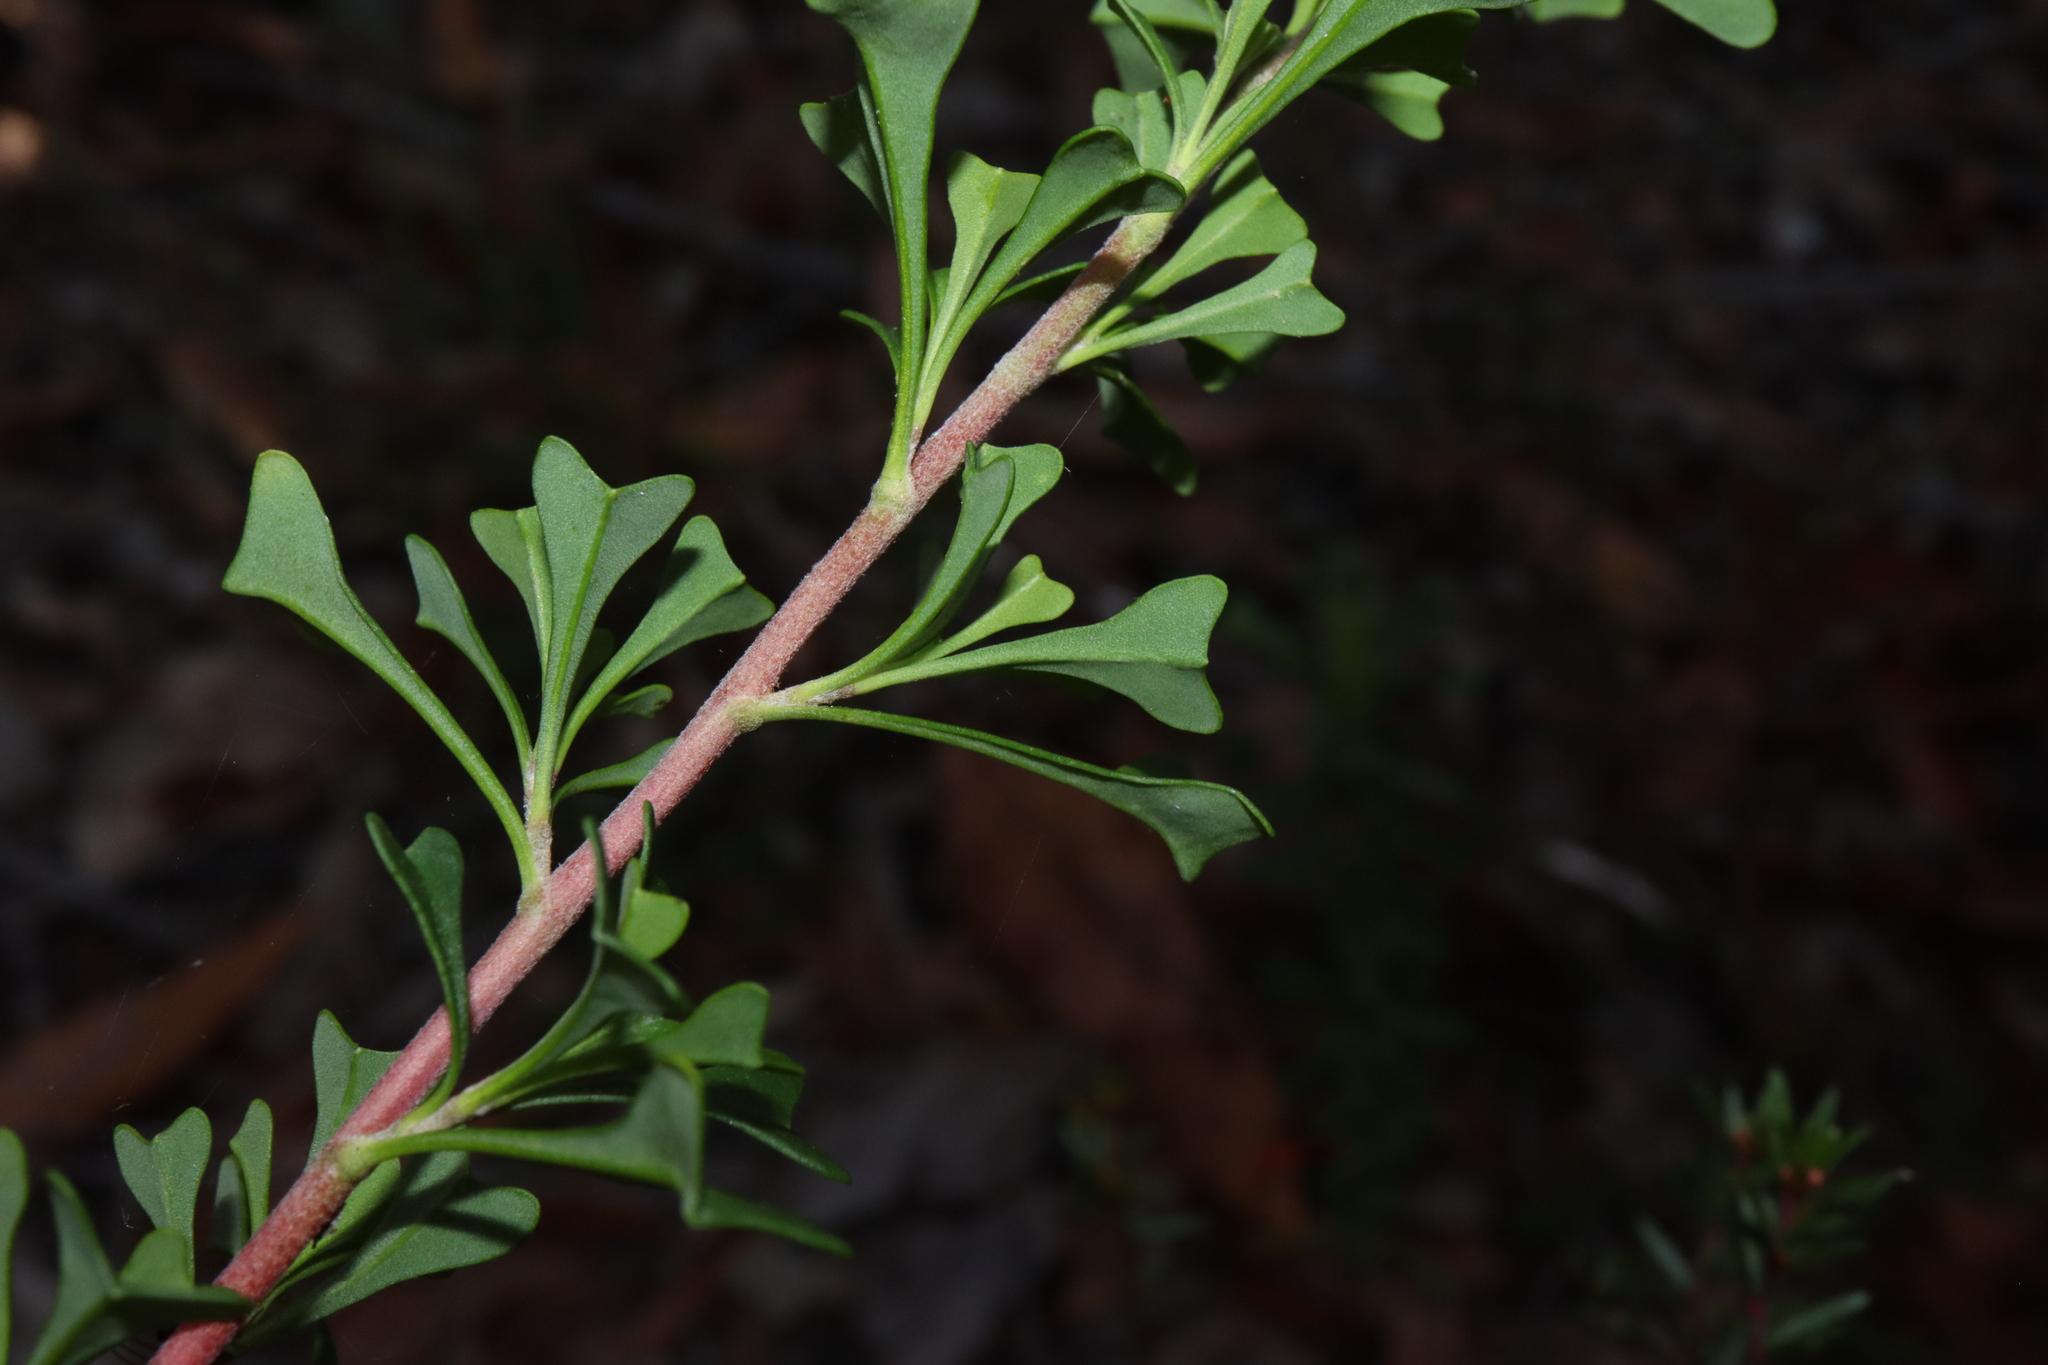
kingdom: Plantae
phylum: Tracheophyta
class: Magnoliopsida
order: Dilleniales
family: Dilleniaceae
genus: Hibbertia
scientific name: Hibbertia monogyna
